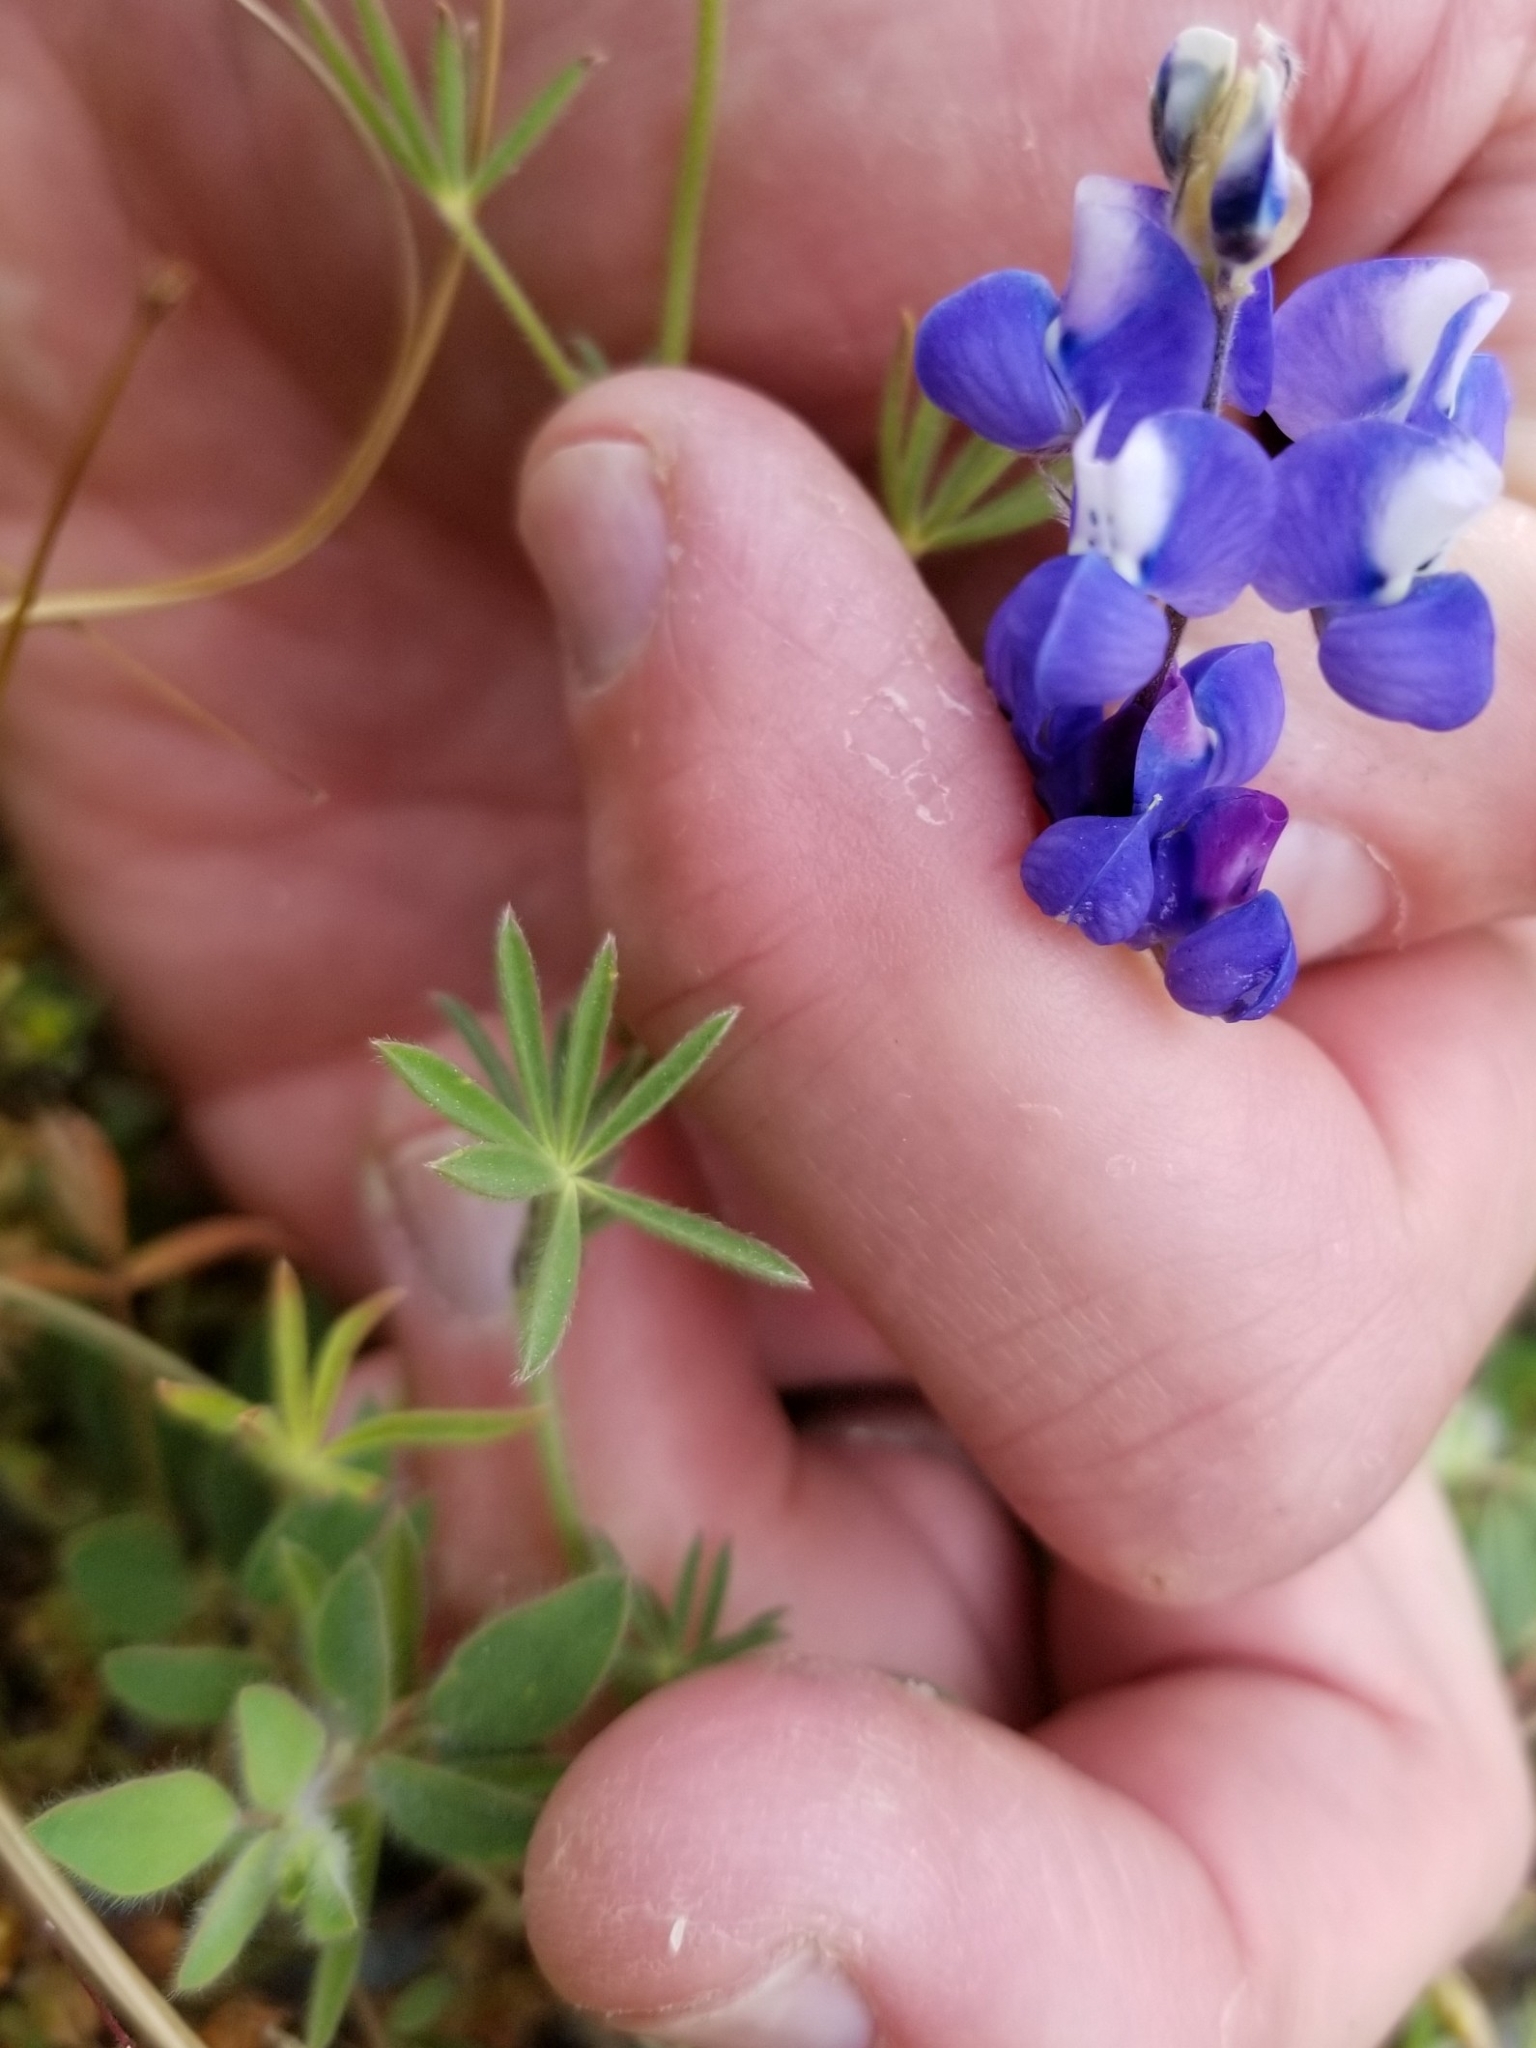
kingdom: Plantae
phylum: Tracheophyta
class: Magnoliopsida
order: Fabales
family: Fabaceae
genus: Lupinus
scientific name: Lupinus bicolor
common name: Miniature lupine
